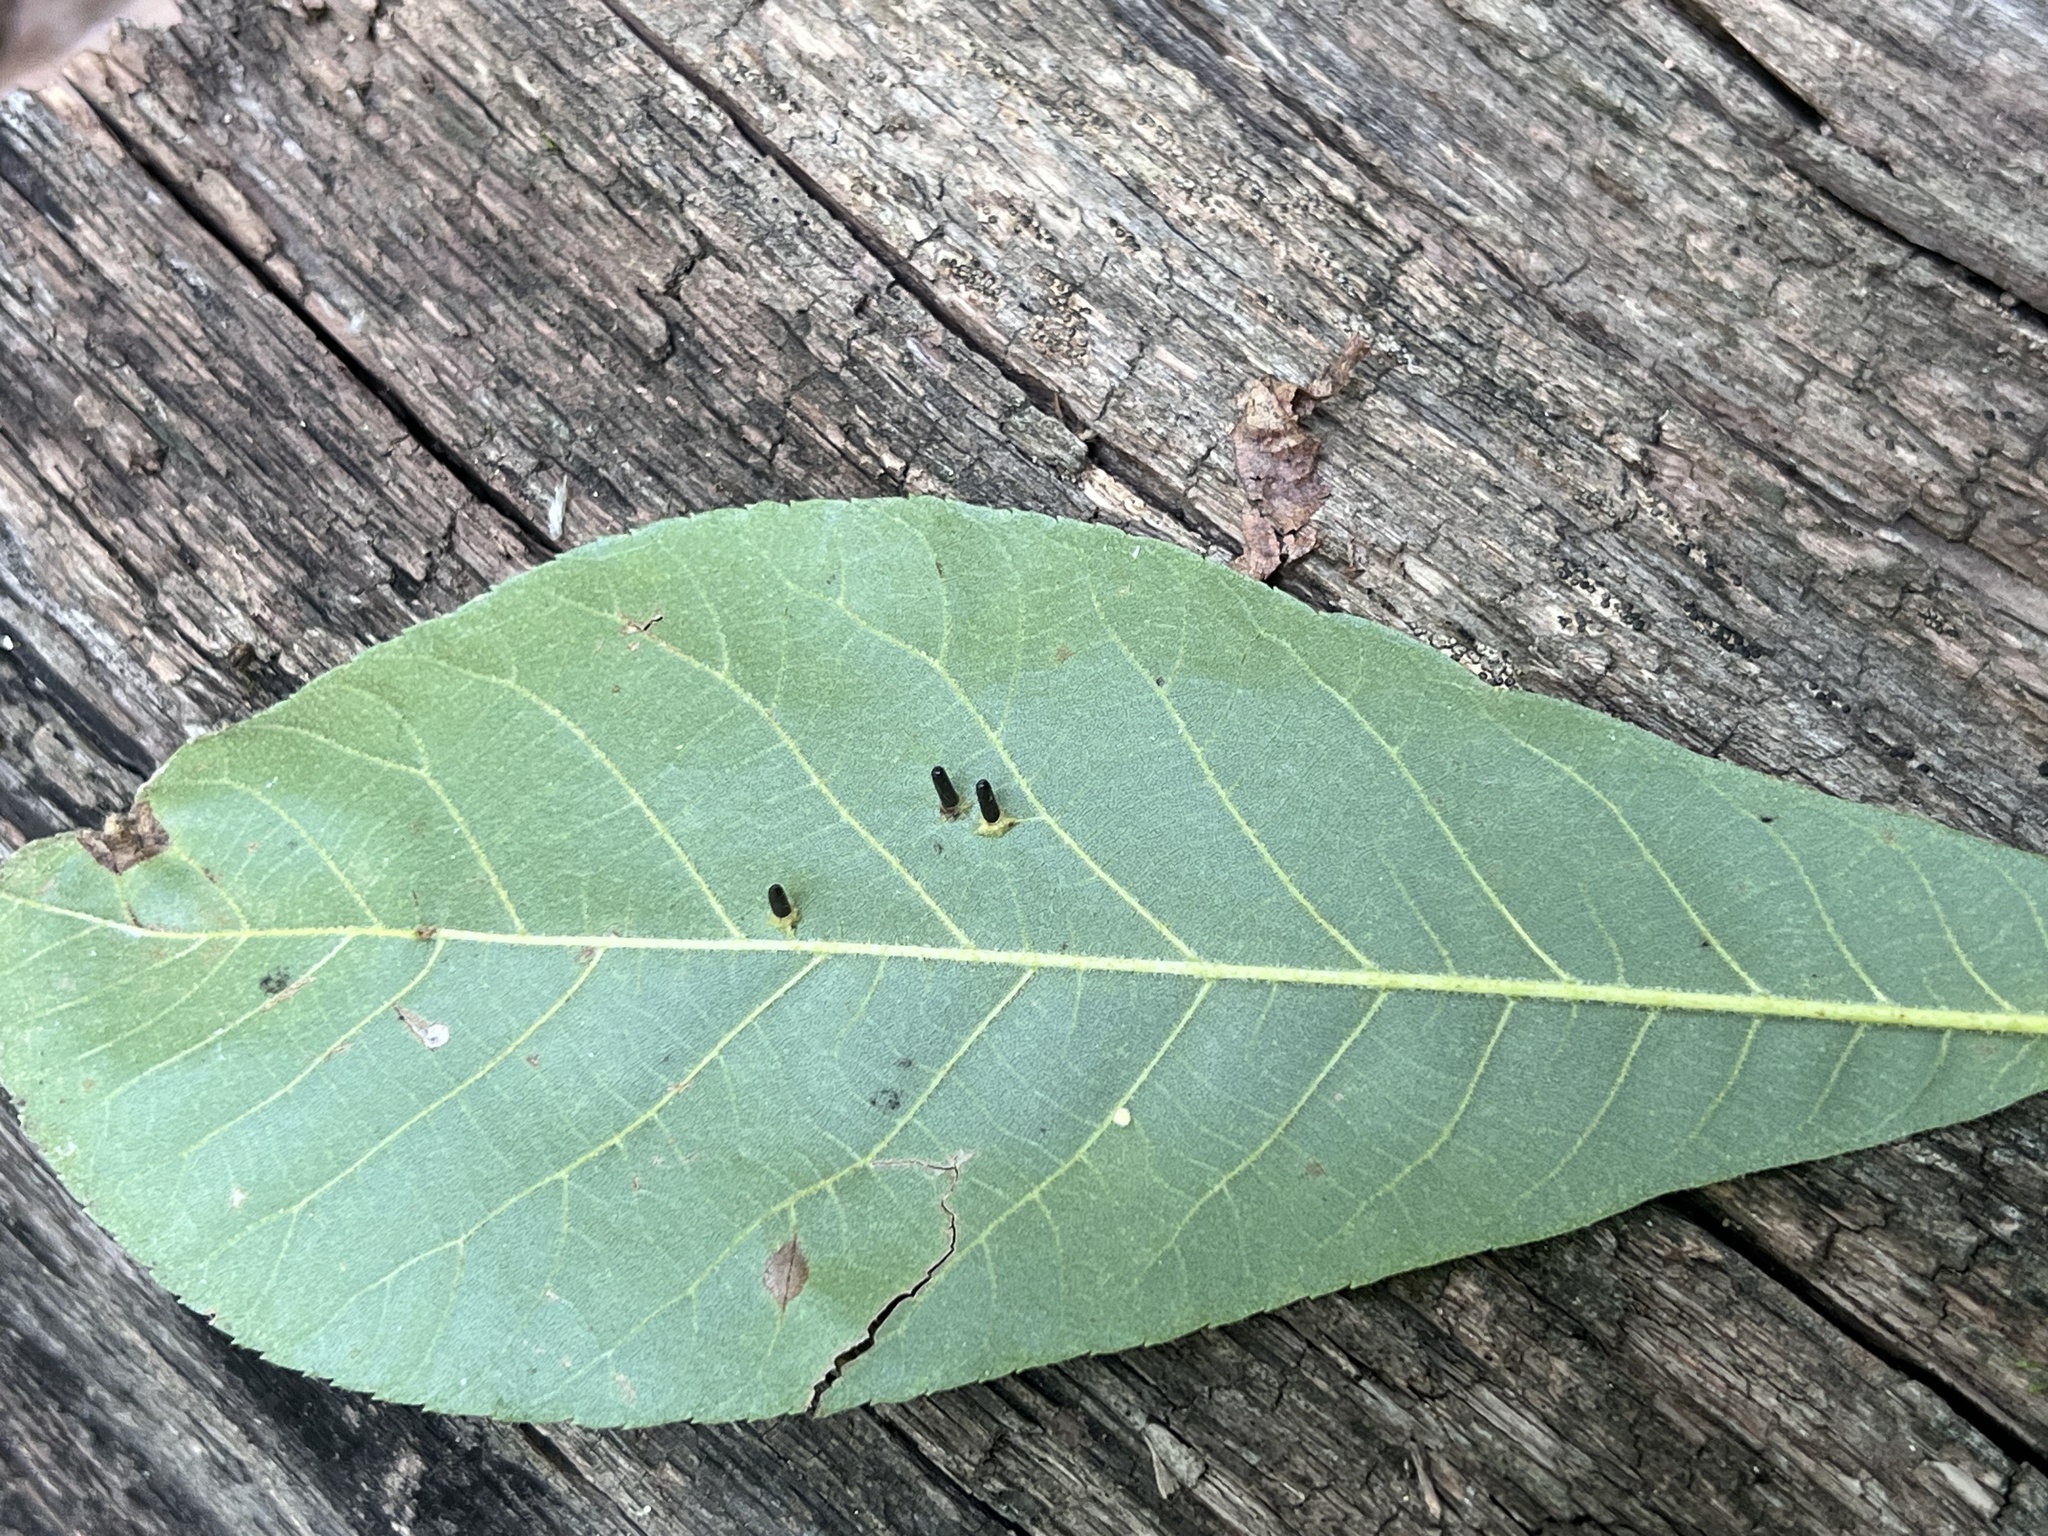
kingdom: Animalia
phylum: Arthropoda
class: Insecta
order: Diptera
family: Cecidomyiidae
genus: Caryomyia
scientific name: Caryomyia tubicola
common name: Hickory bullet gall midge
